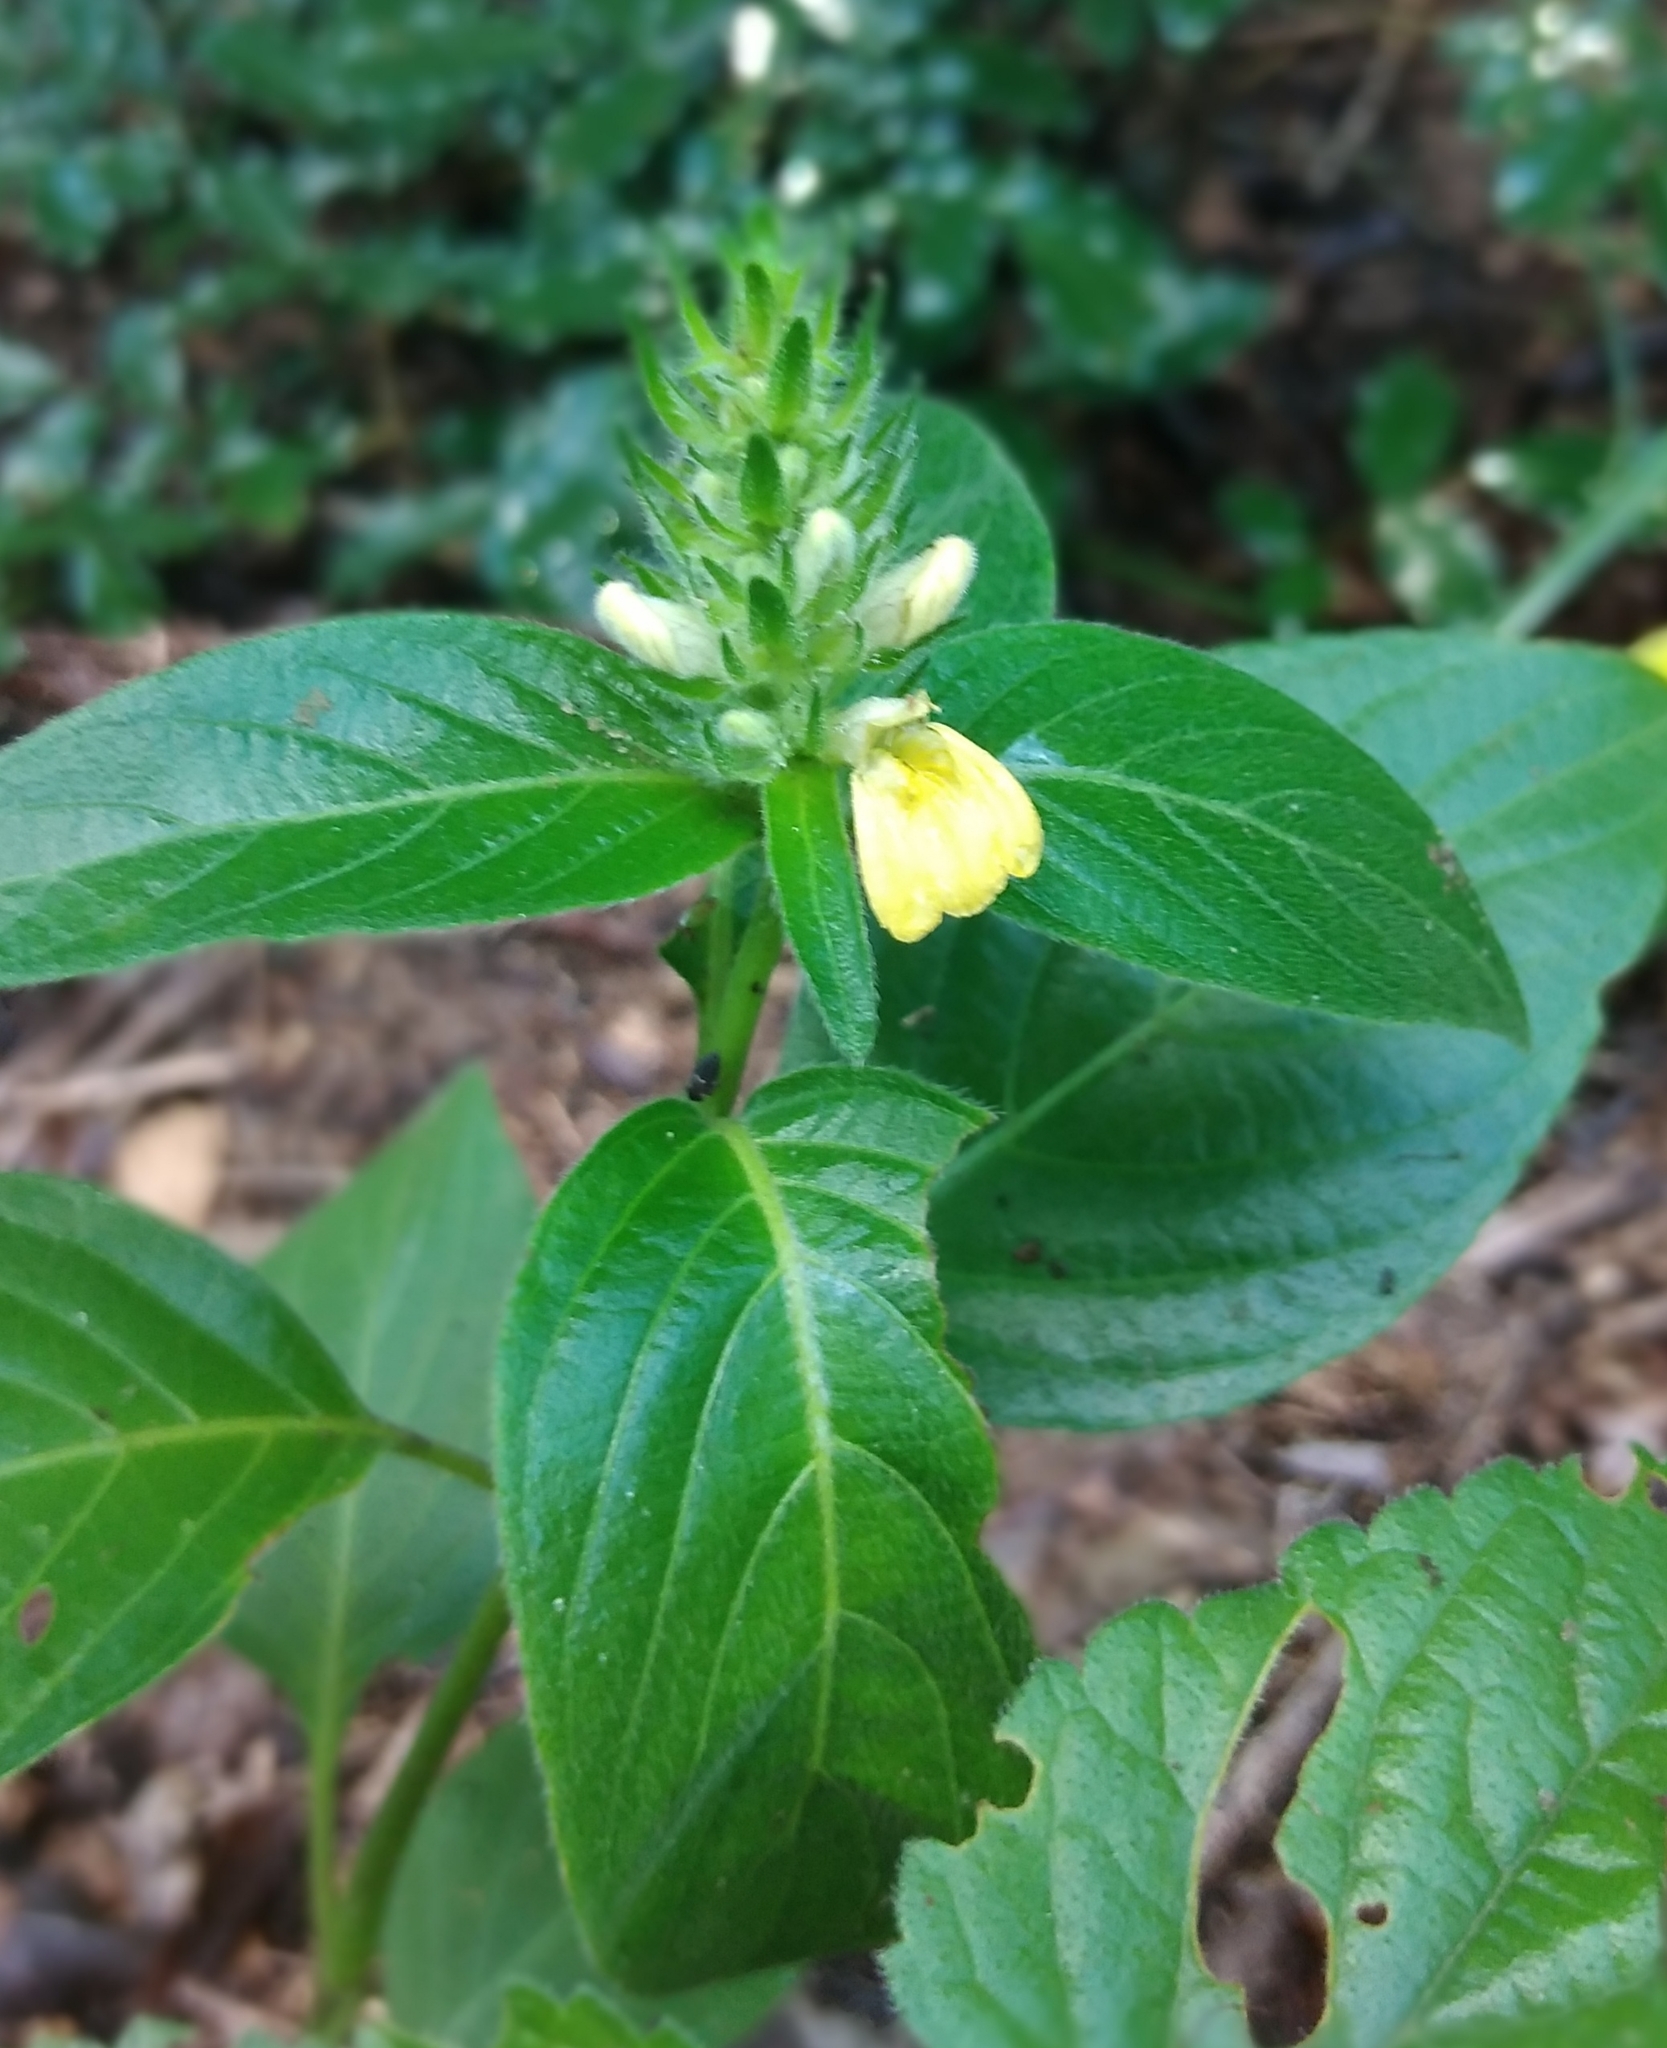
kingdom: Plantae
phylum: Tracheophyta
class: Magnoliopsida
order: Lamiales
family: Acanthaceae
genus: Justicia
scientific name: Justicia flava
